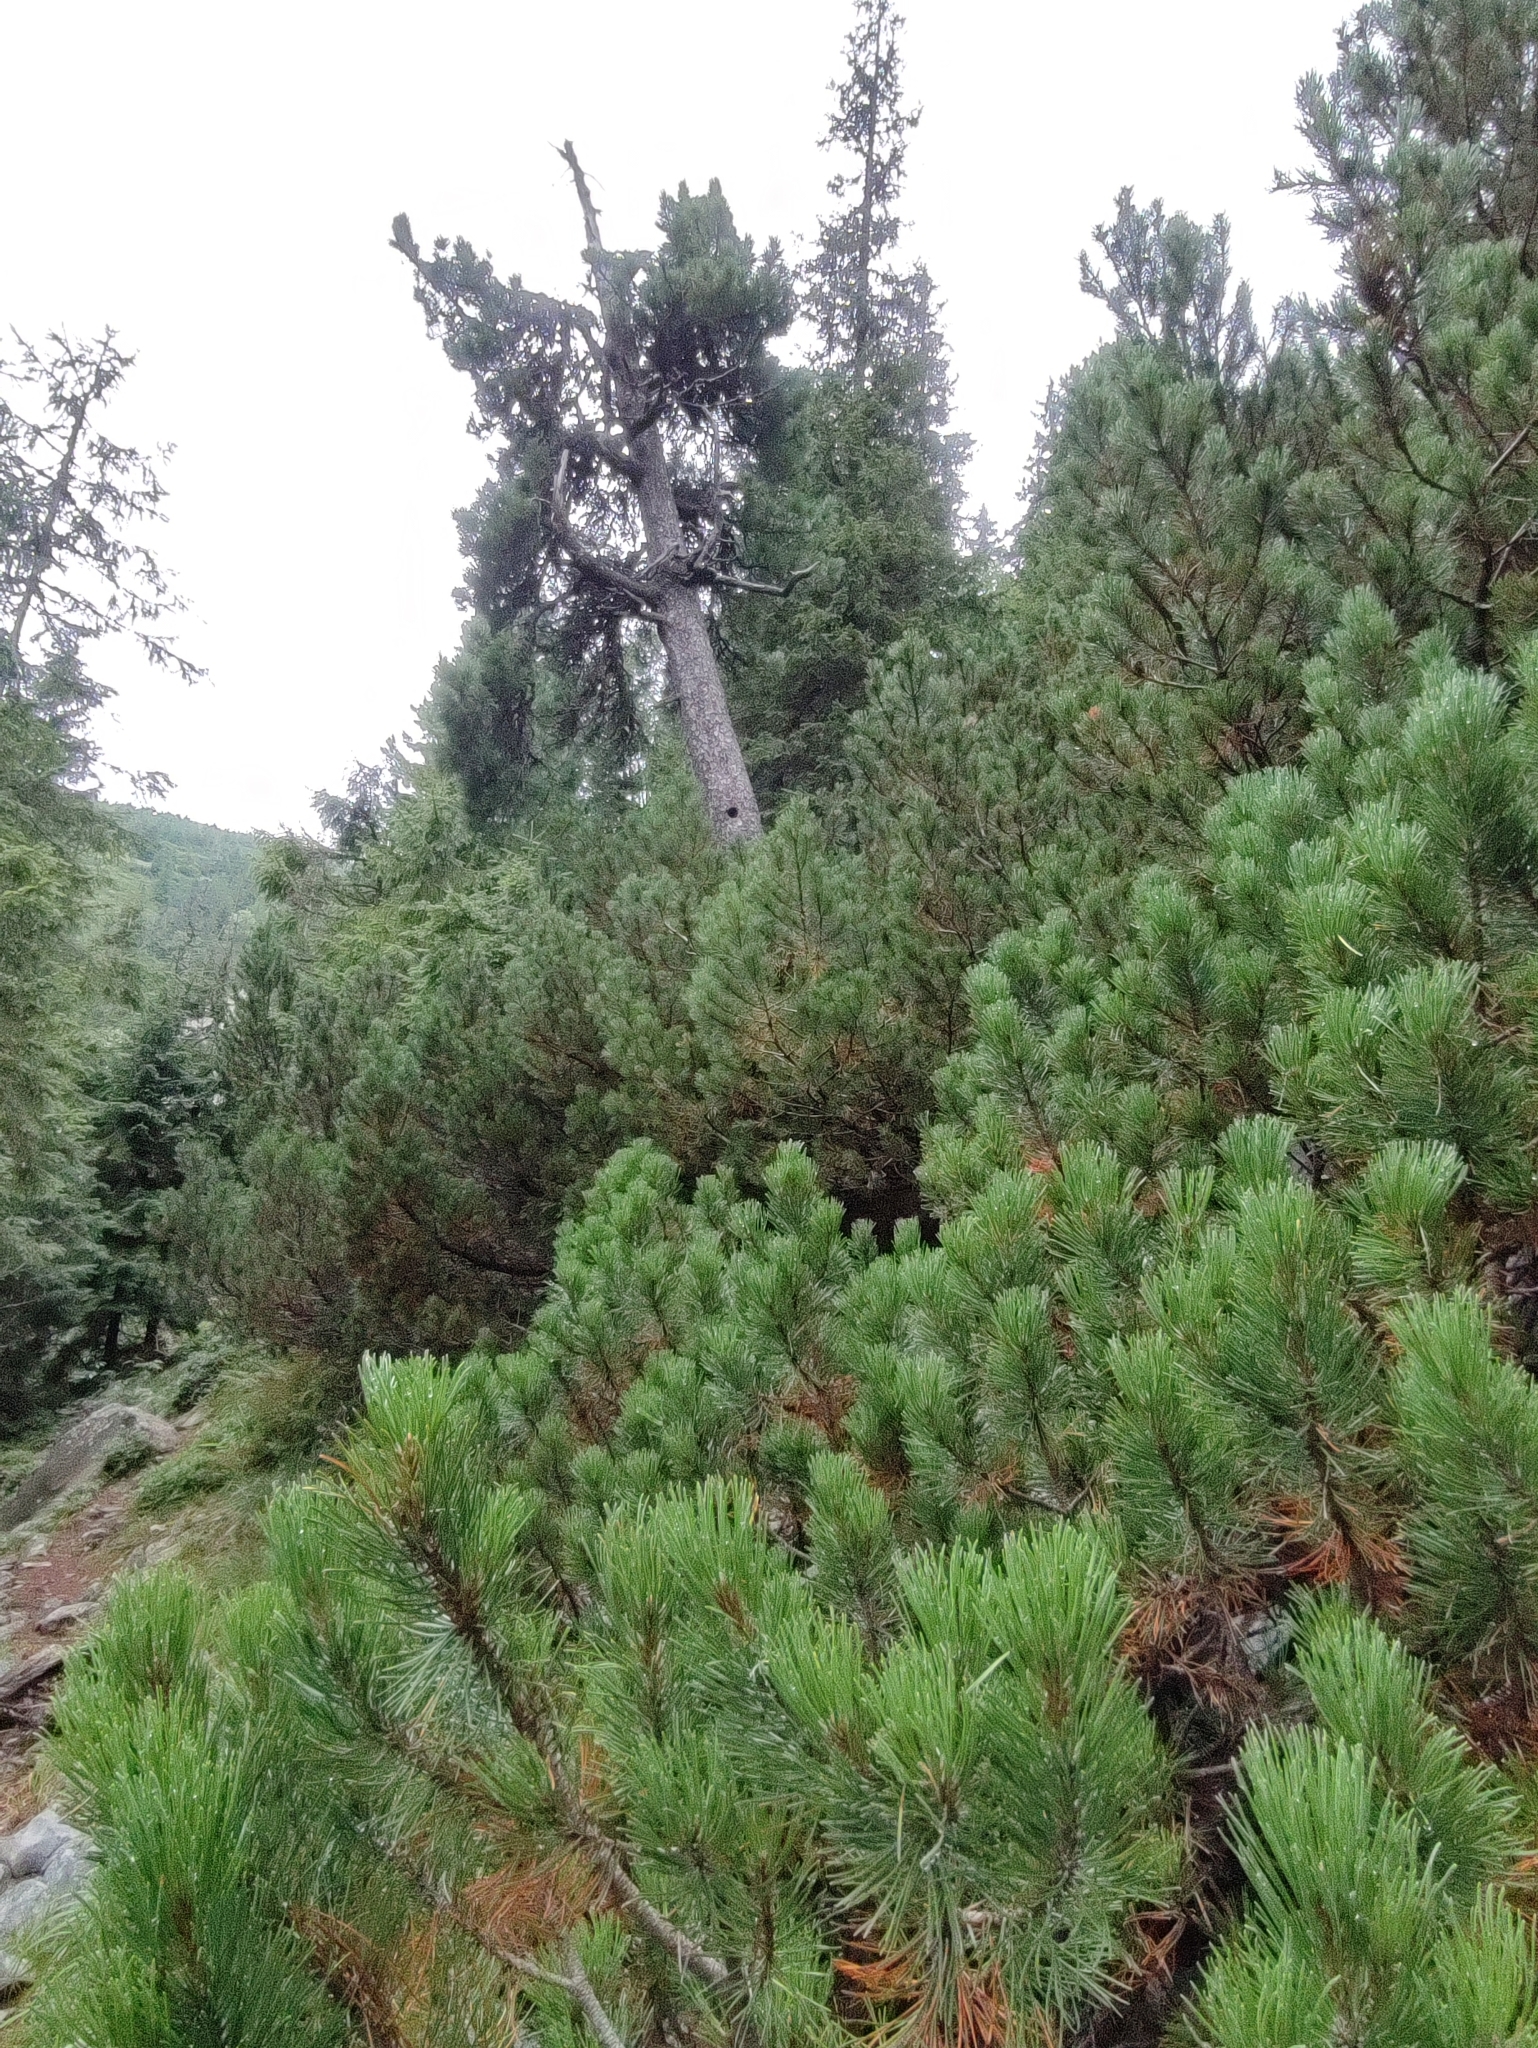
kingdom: Plantae
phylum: Tracheophyta
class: Pinopsida
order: Pinales
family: Pinaceae
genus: Pinus
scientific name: Pinus mugo
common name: Mugo pine
